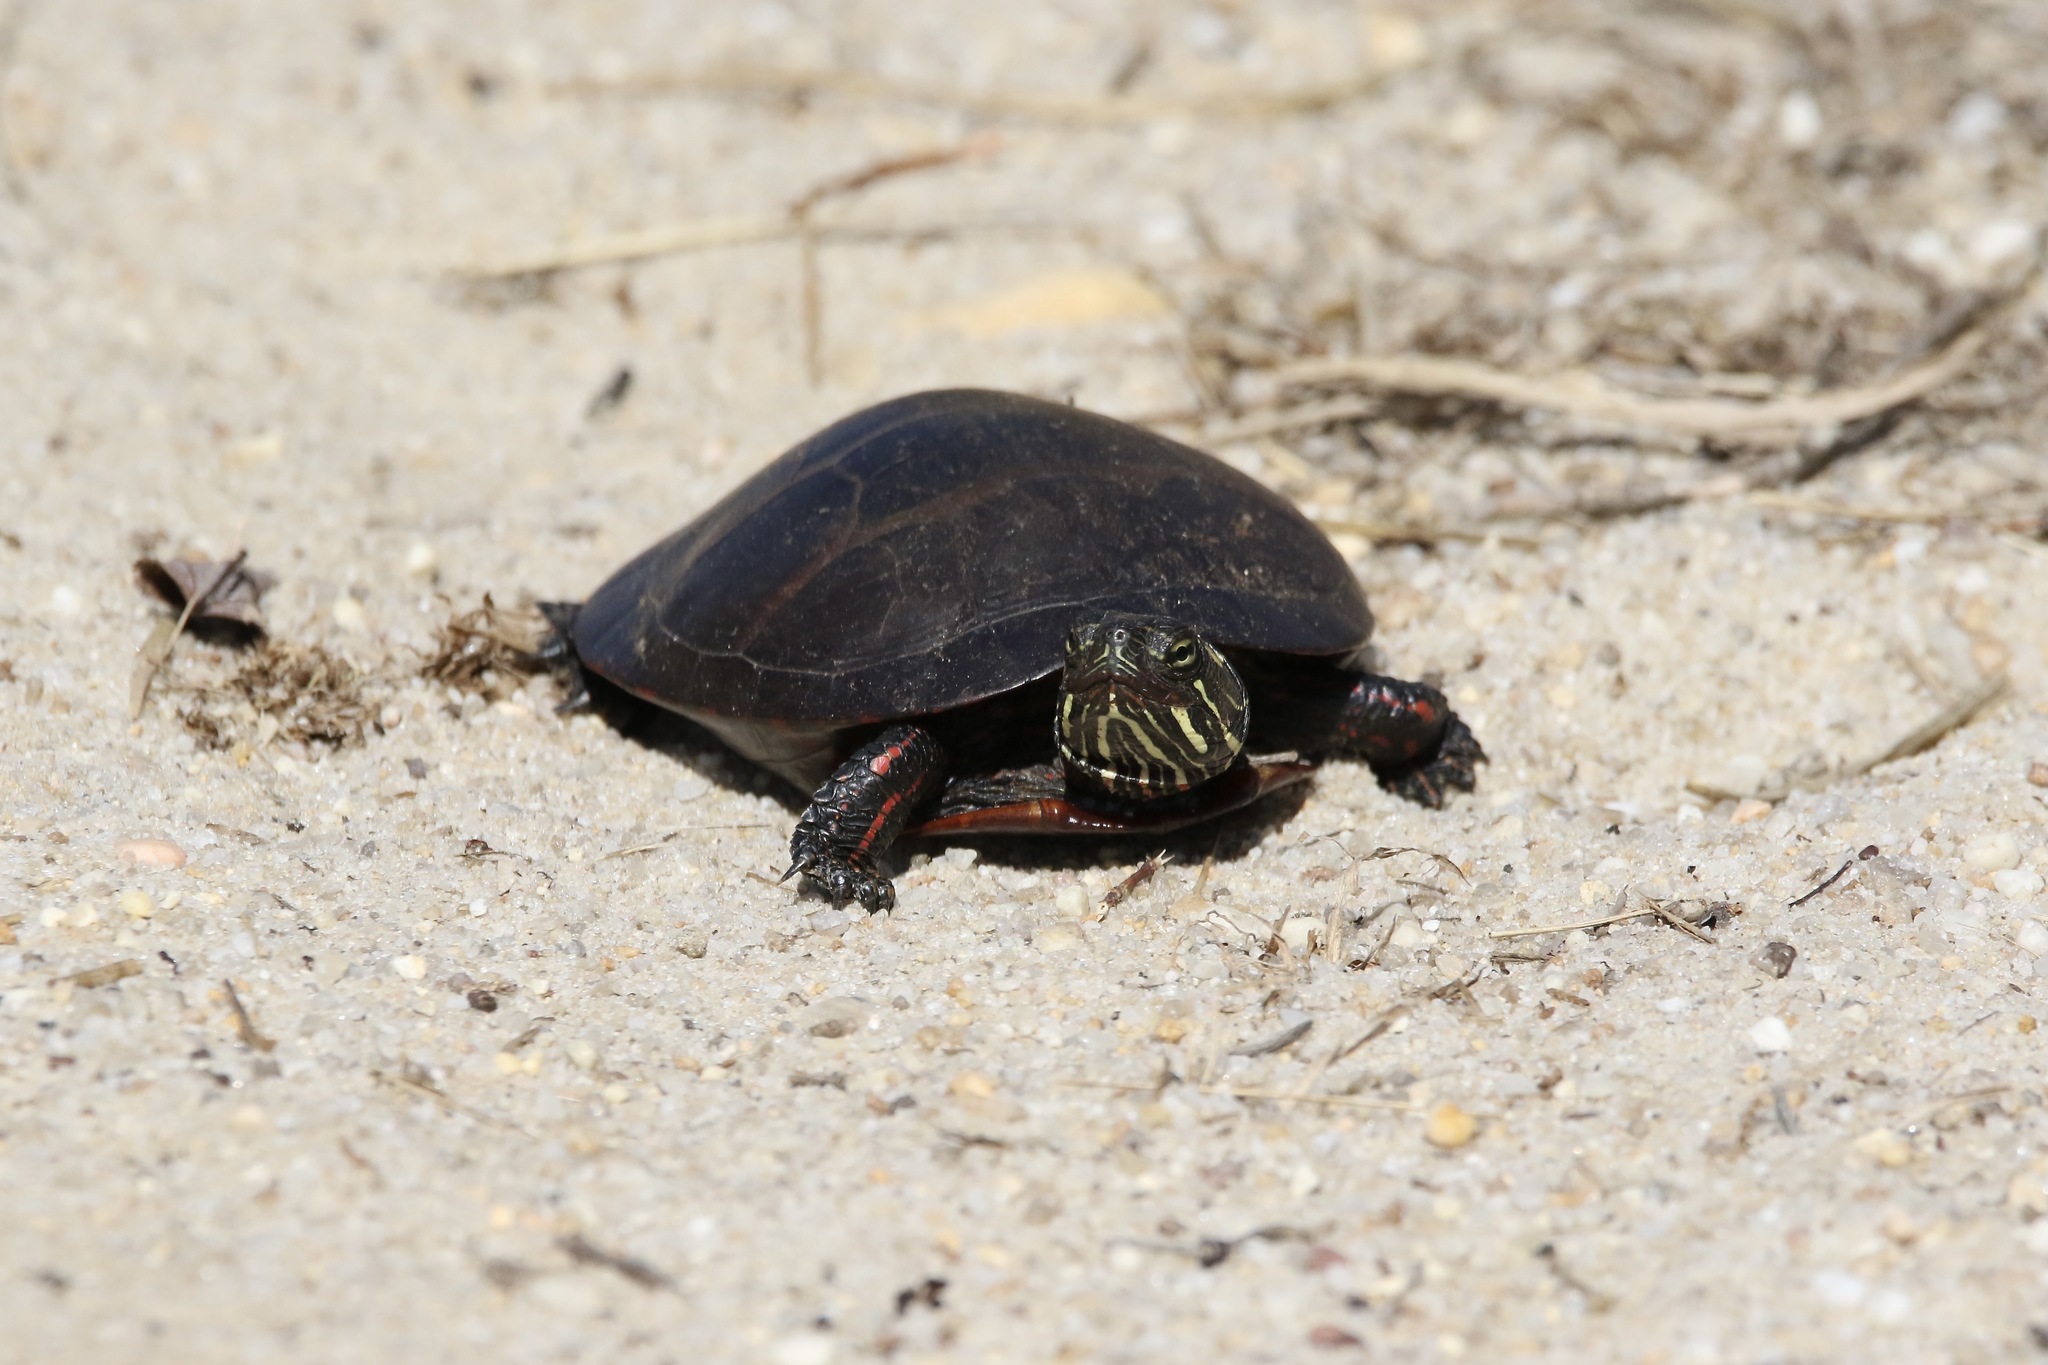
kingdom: Animalia
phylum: Chordata
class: Testudines
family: Emydidae
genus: Chrysemys
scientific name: Chrysemys picta
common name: Painted turtle
